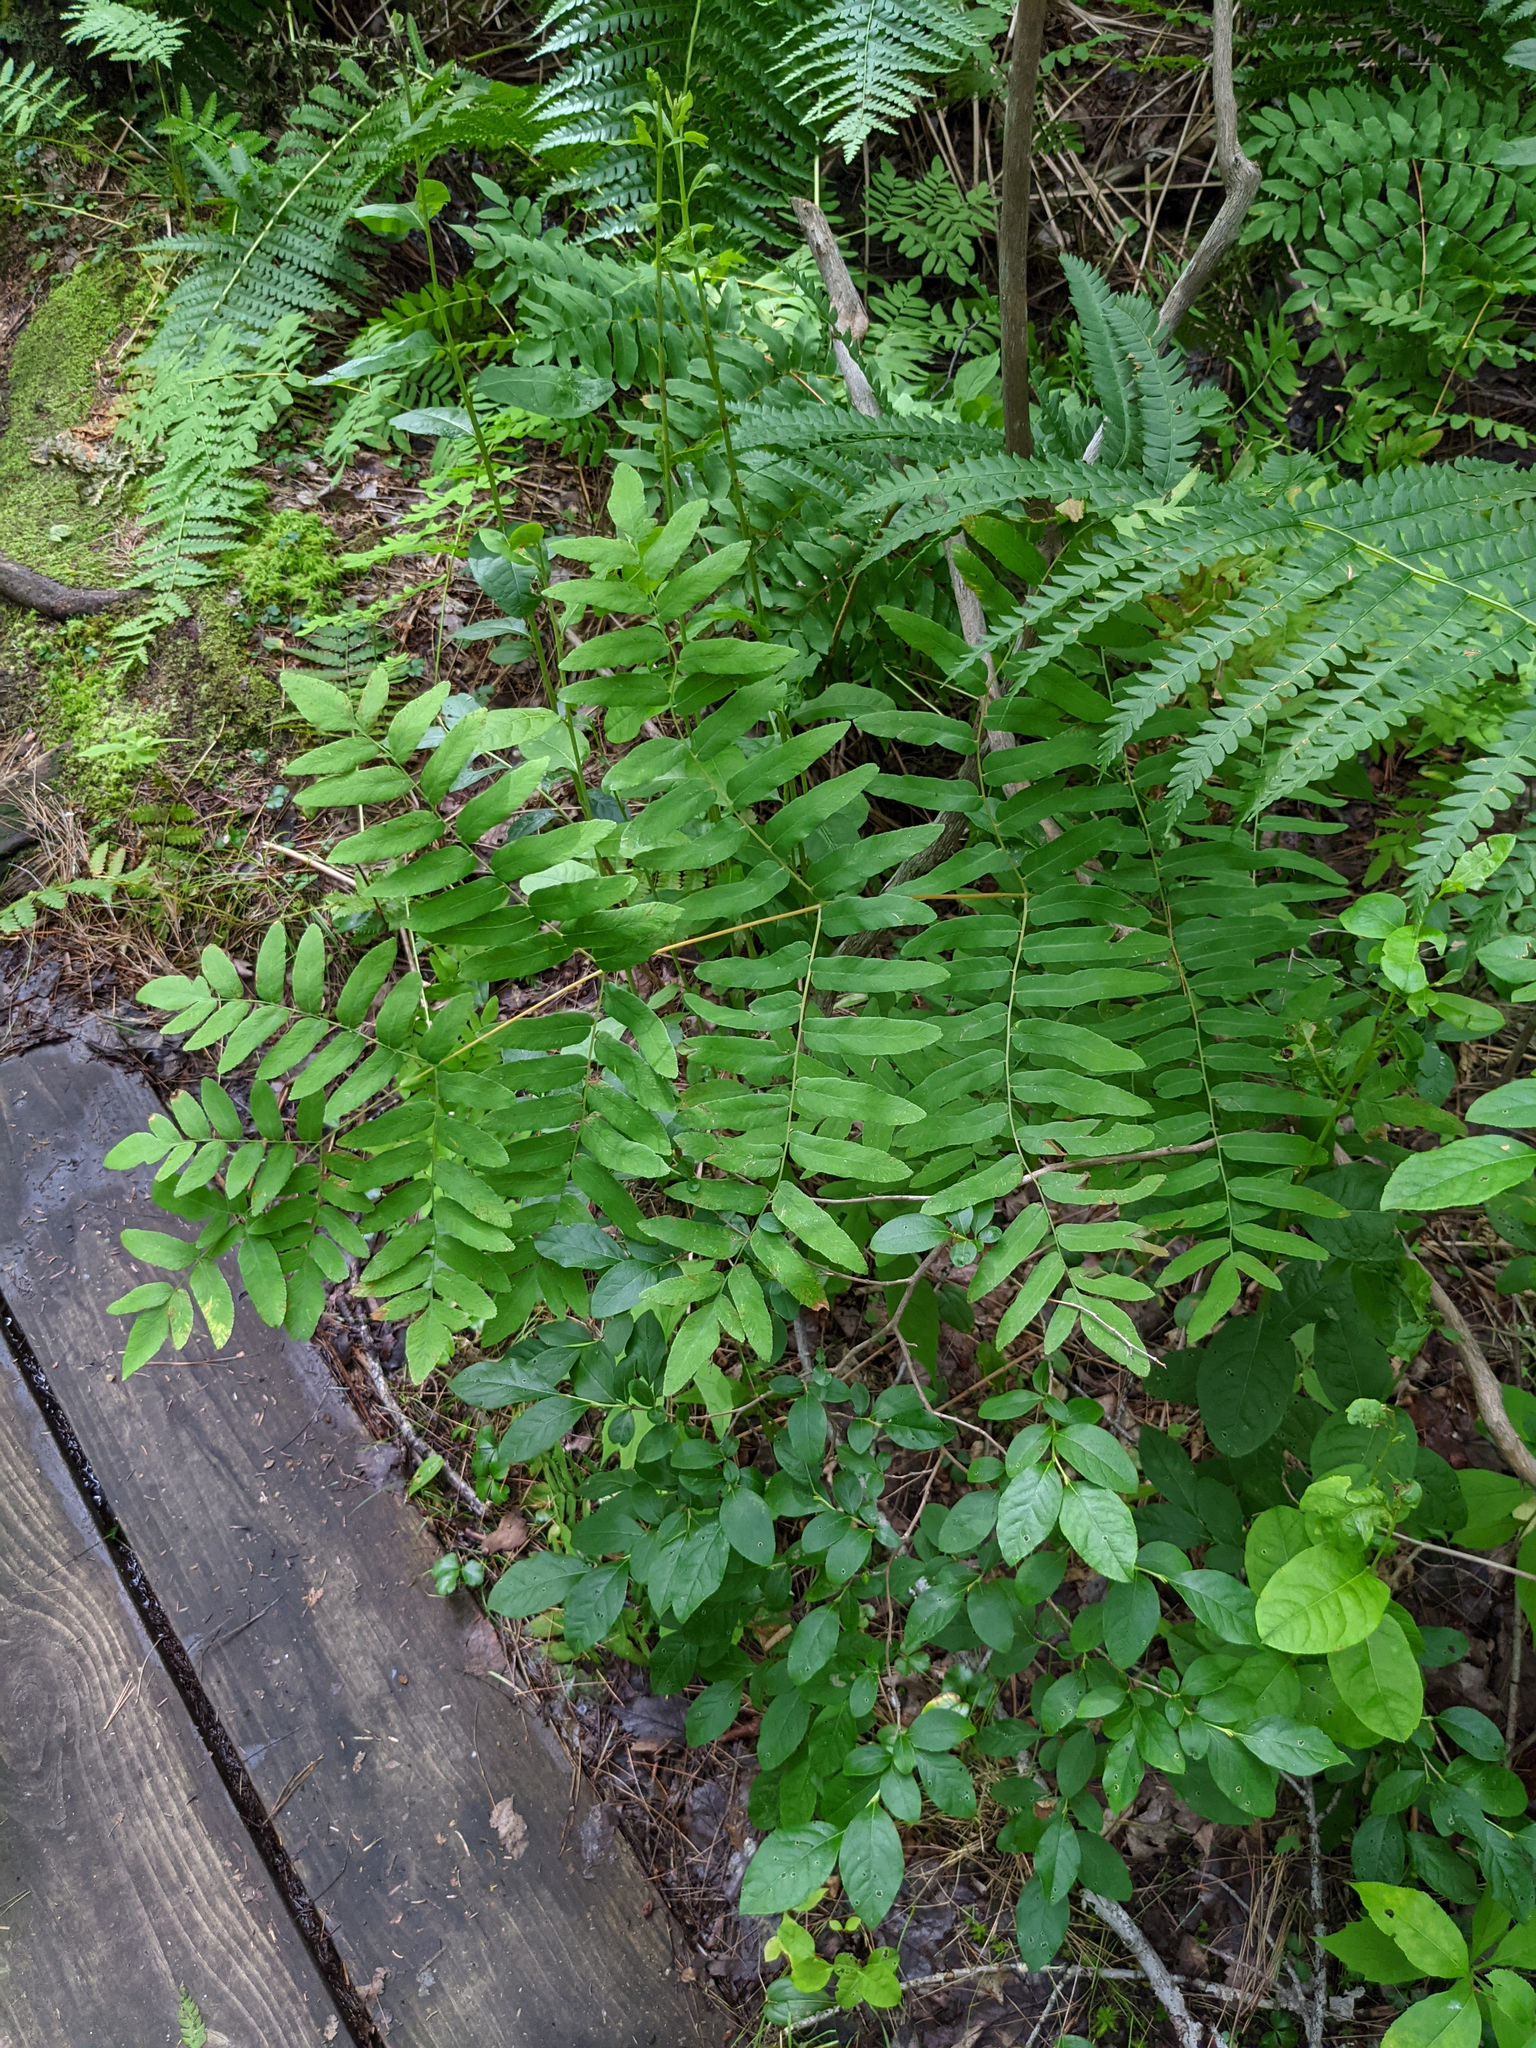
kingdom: Plantae
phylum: Tracheophyta
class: Polypodiopsida
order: Osmundales
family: Osmundaceae
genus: Osmunda
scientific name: Osmunda spectabilis
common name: American royal fern
